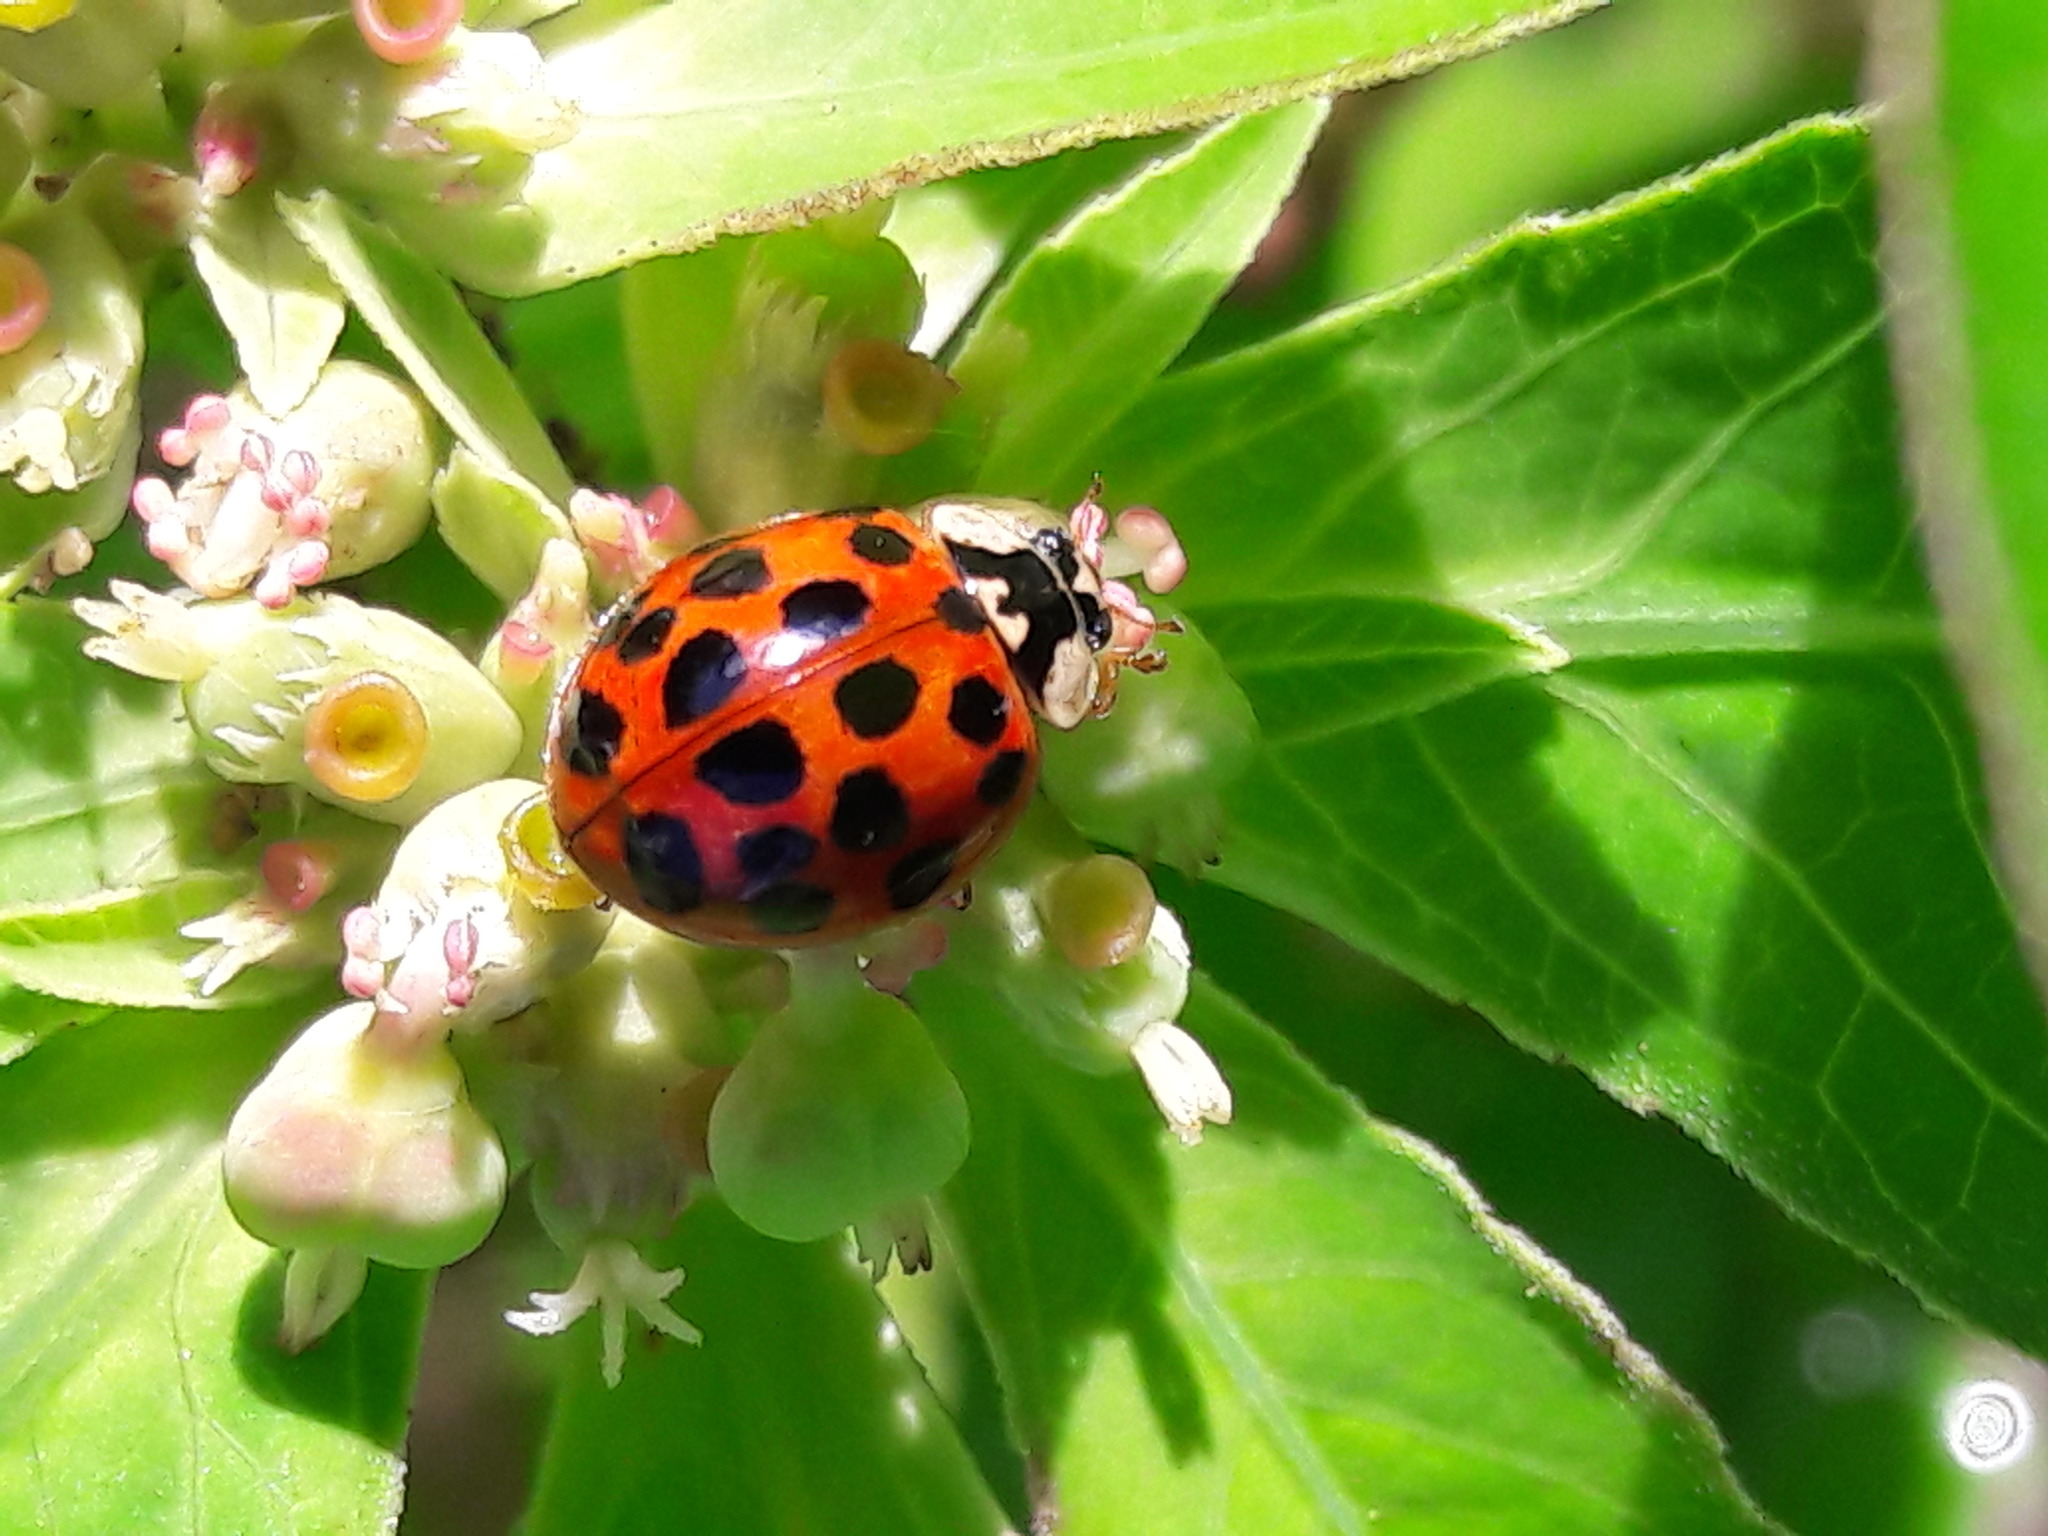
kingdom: Animalia
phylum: Arthropoda
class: Insecta
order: Coleoptera
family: Coccinellidae
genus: Harmonia
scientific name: Harmonia axyridis
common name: Harlequin ladybird
